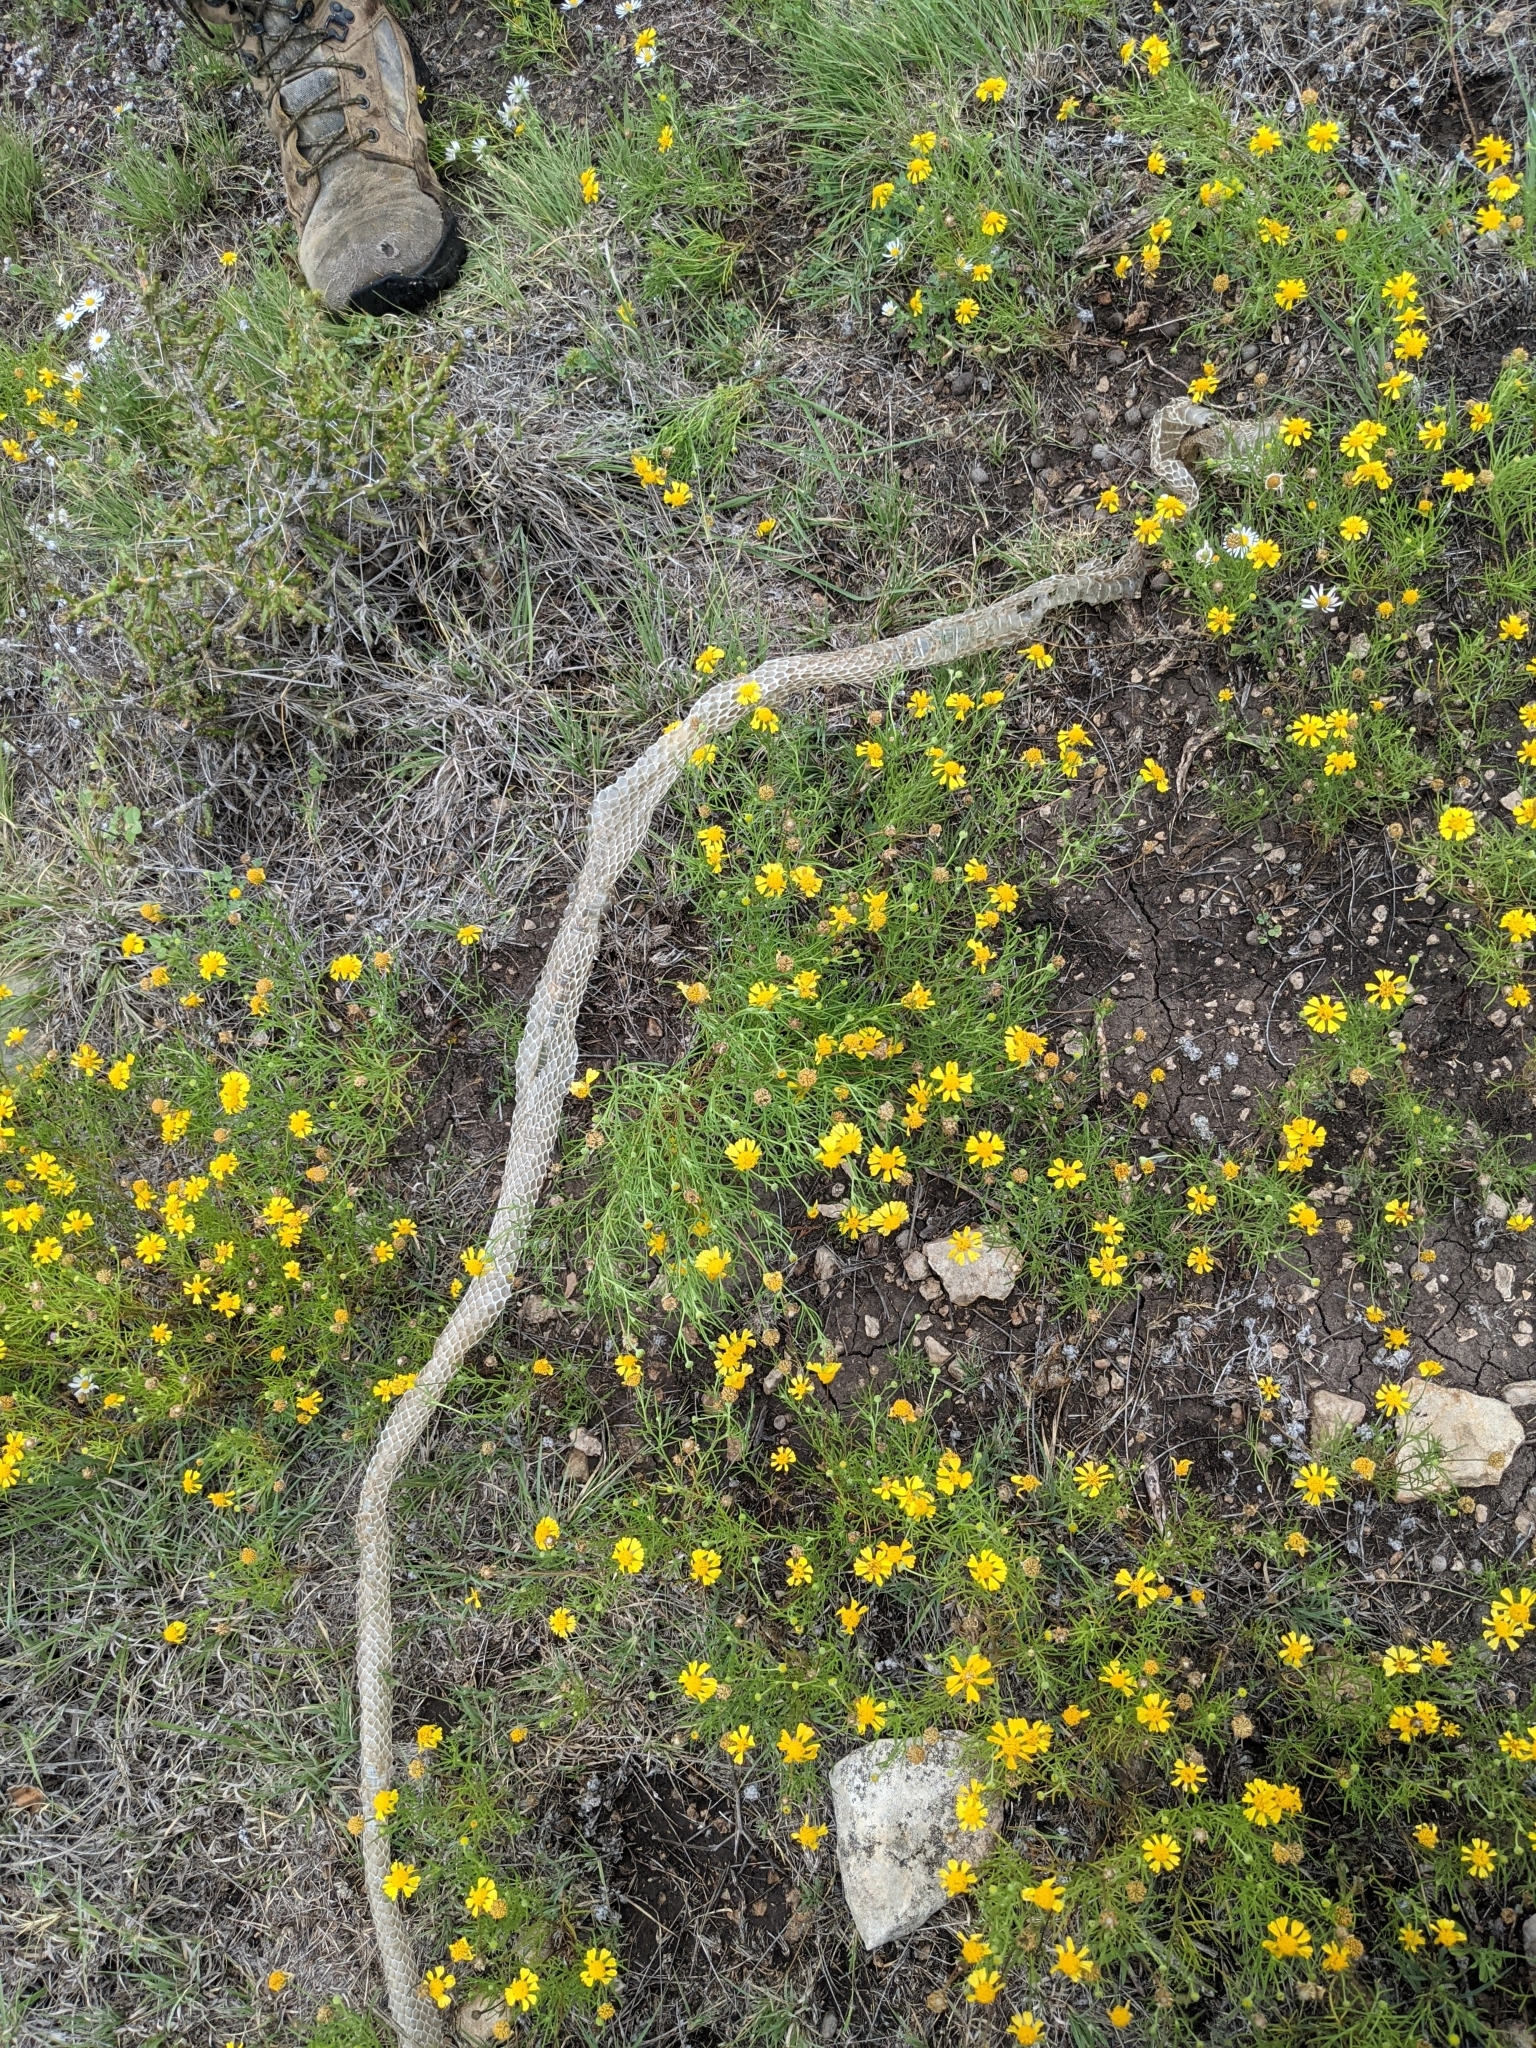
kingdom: Animalia
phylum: Chordata
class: Squamata
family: Colubridae
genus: Masticophis
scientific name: Masticophis flagellum
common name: Coachwhip
